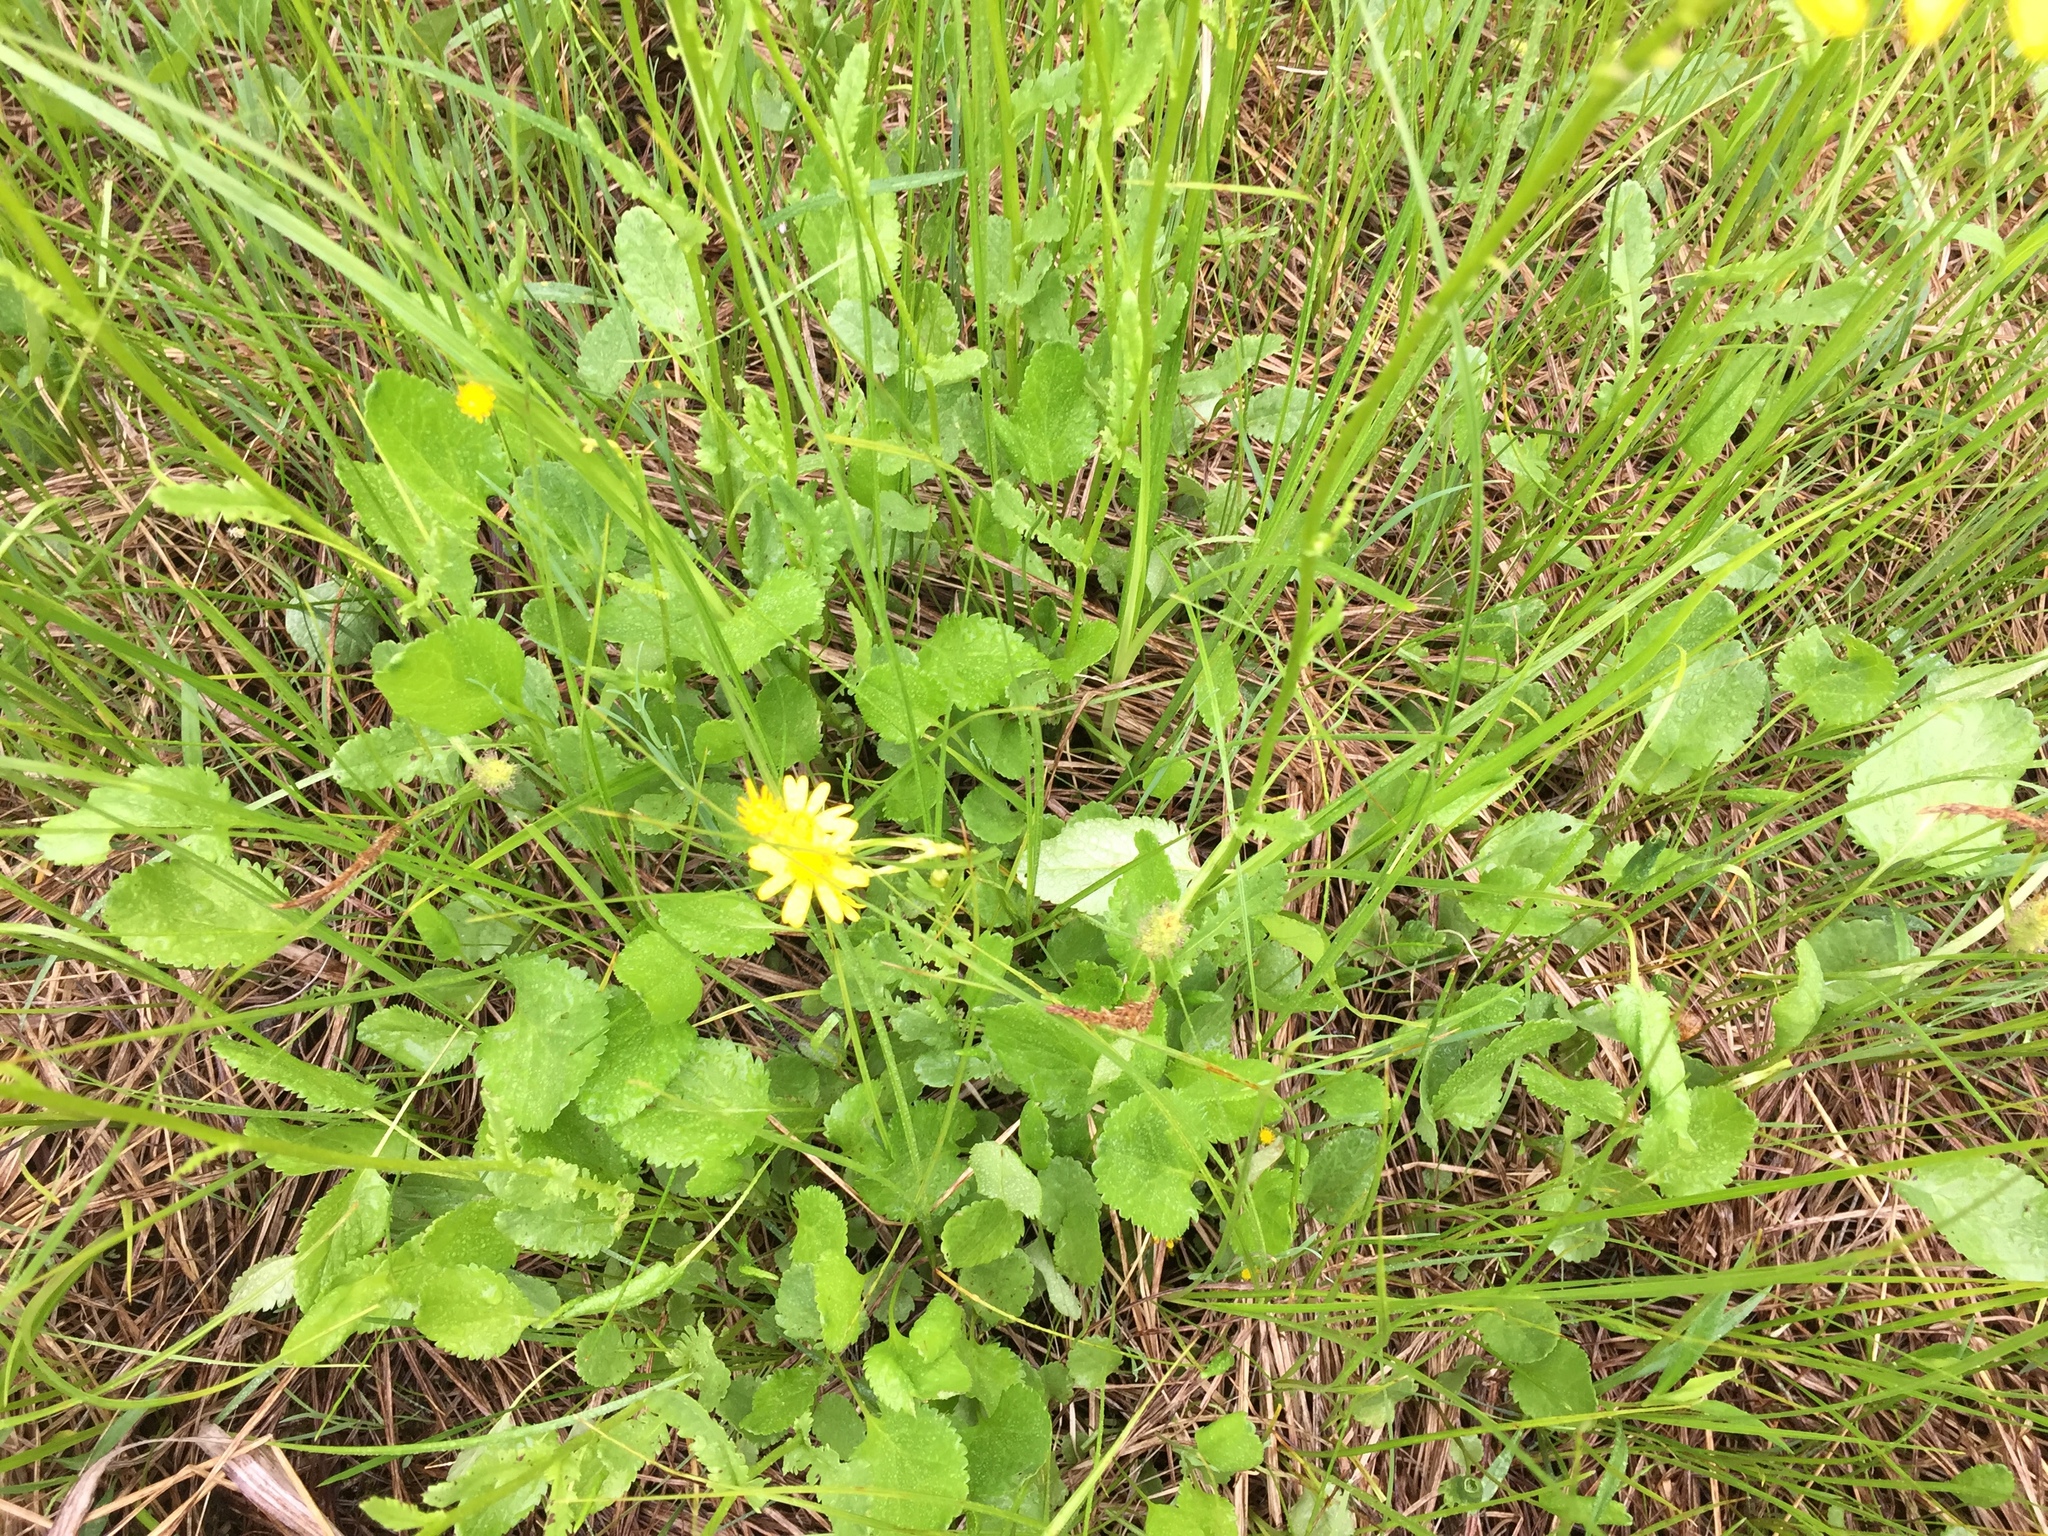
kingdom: Plantae
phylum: Tracheophyta
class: Magnoliopsida
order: Asterales
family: Asteraceae
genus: Packera
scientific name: Packera aurea
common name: Golden groundsel
